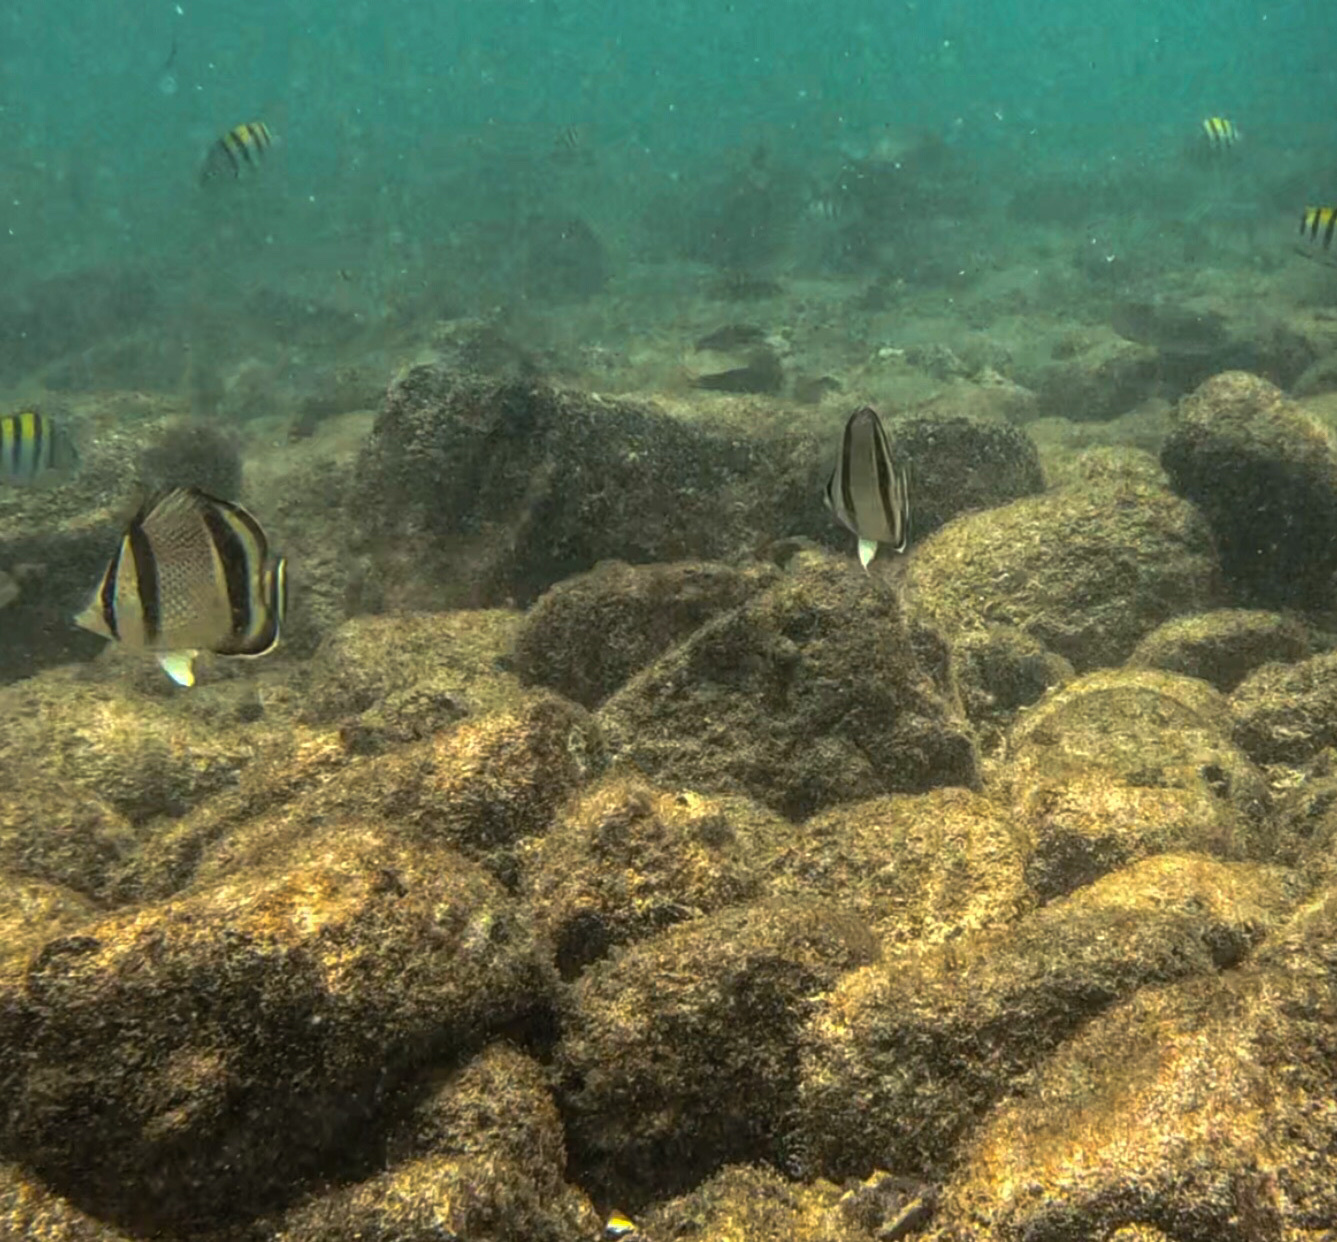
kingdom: Animalia
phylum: Chordata
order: Perciformes
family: Chaetodontidae
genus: Chaetodon
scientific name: Chaetodon humeralis
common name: Threebanded butterflyfish
